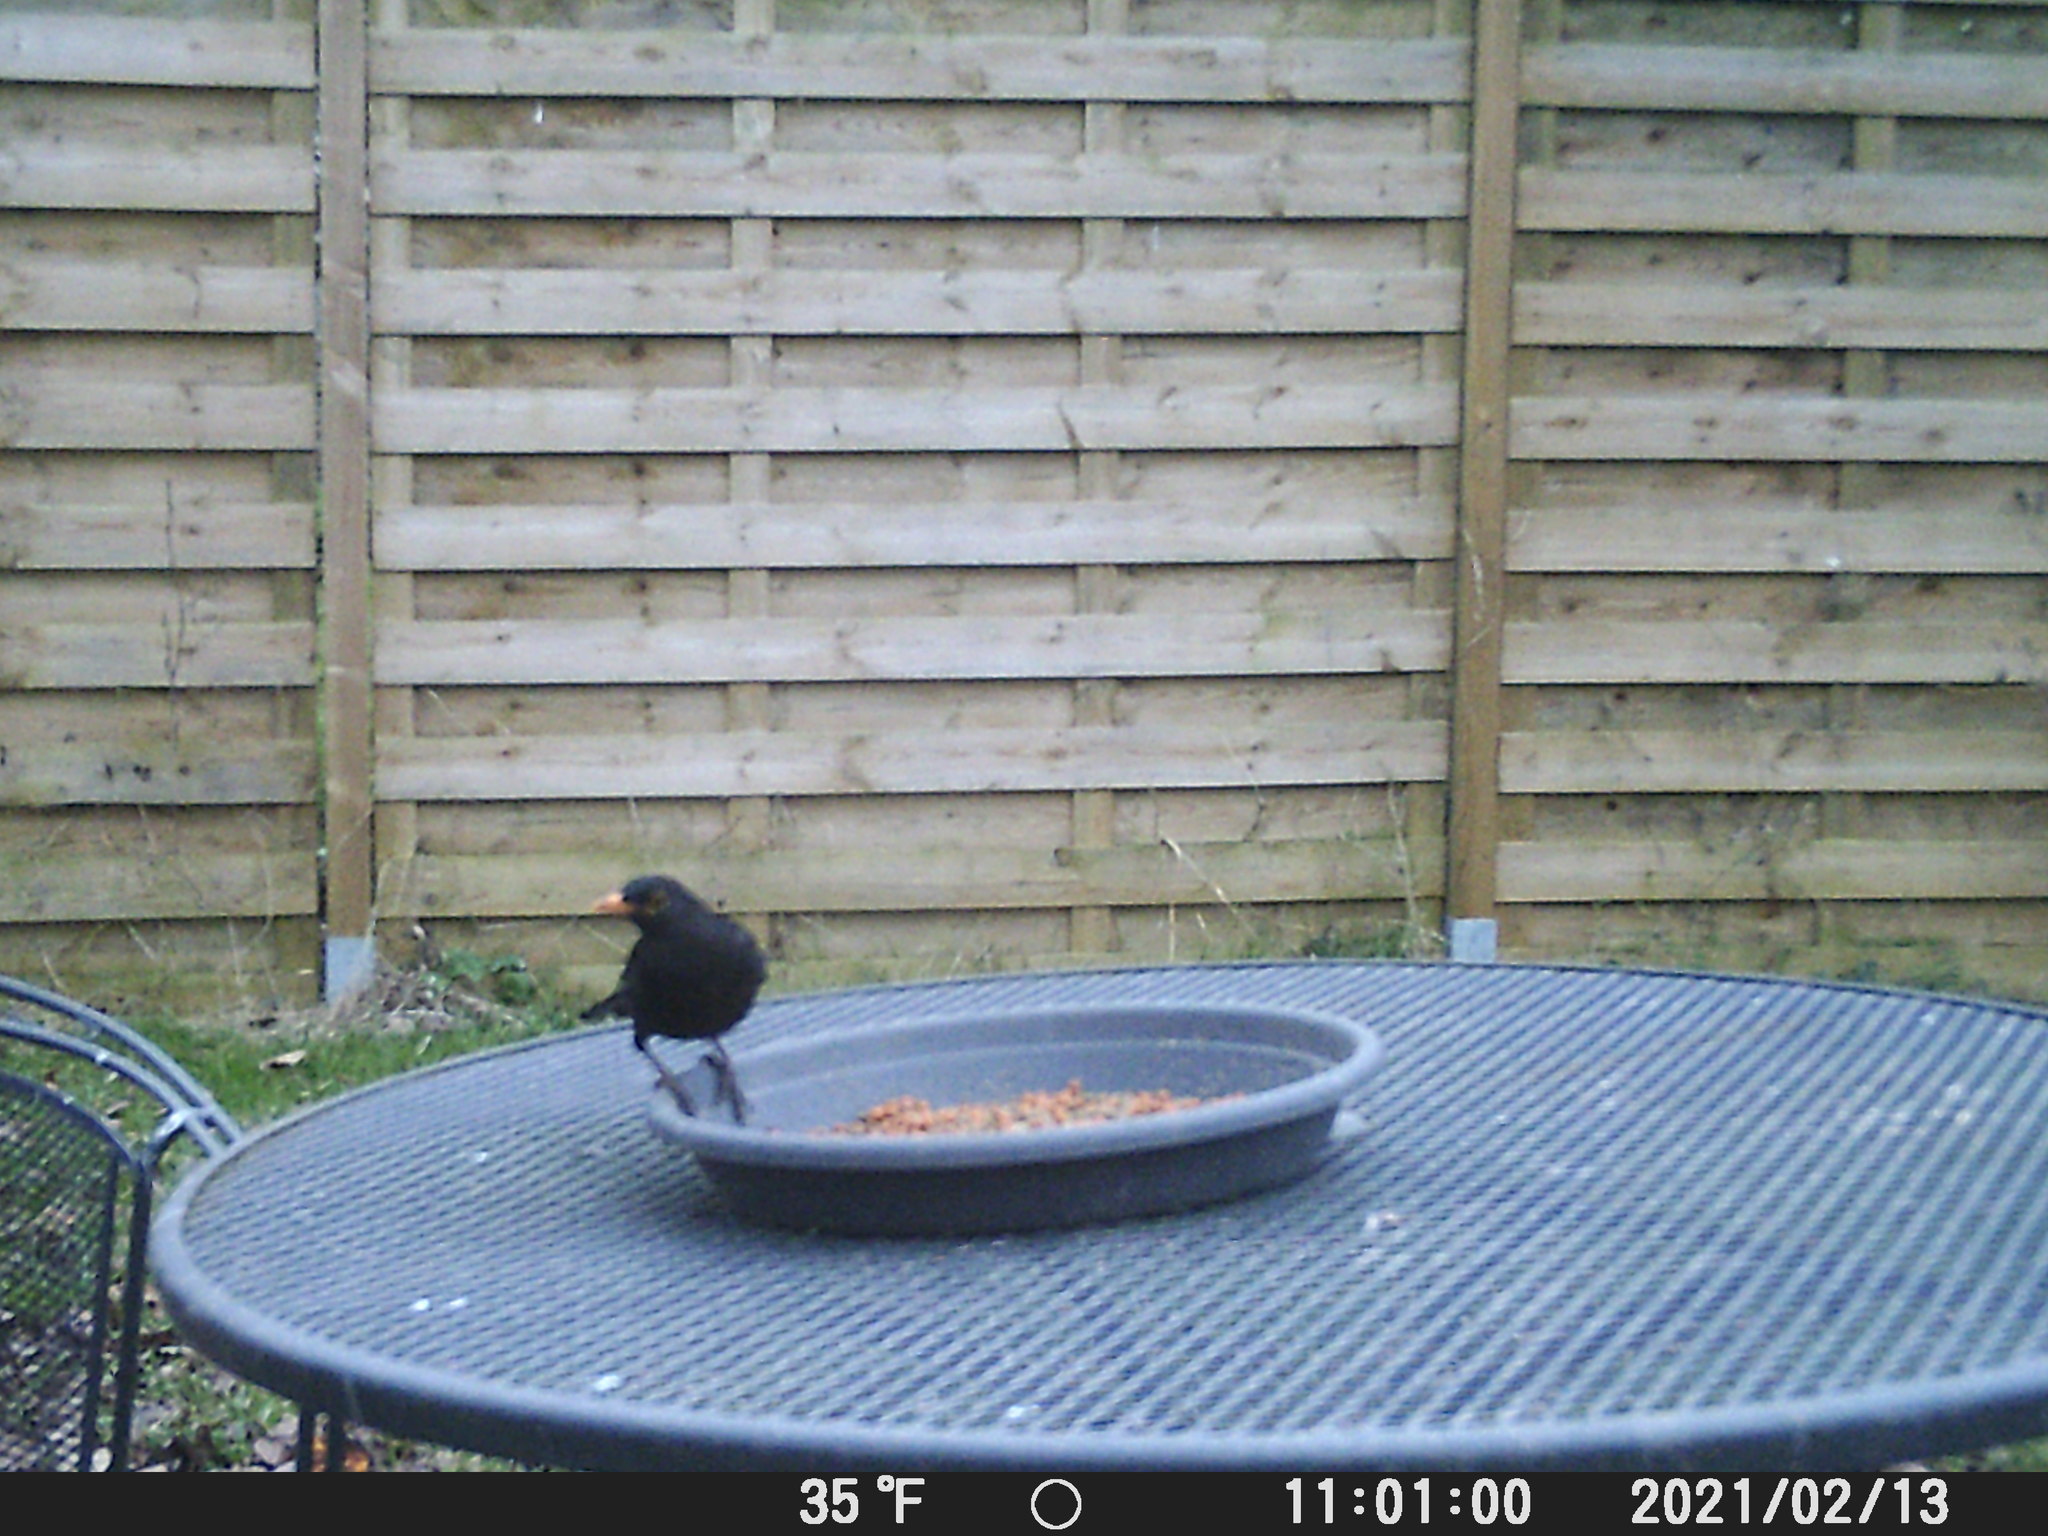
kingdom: Animalia
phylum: Chordata
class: Aves
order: Passeriformes
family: Turdidae
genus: Turdus
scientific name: Turdus merula
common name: Common blackbird
